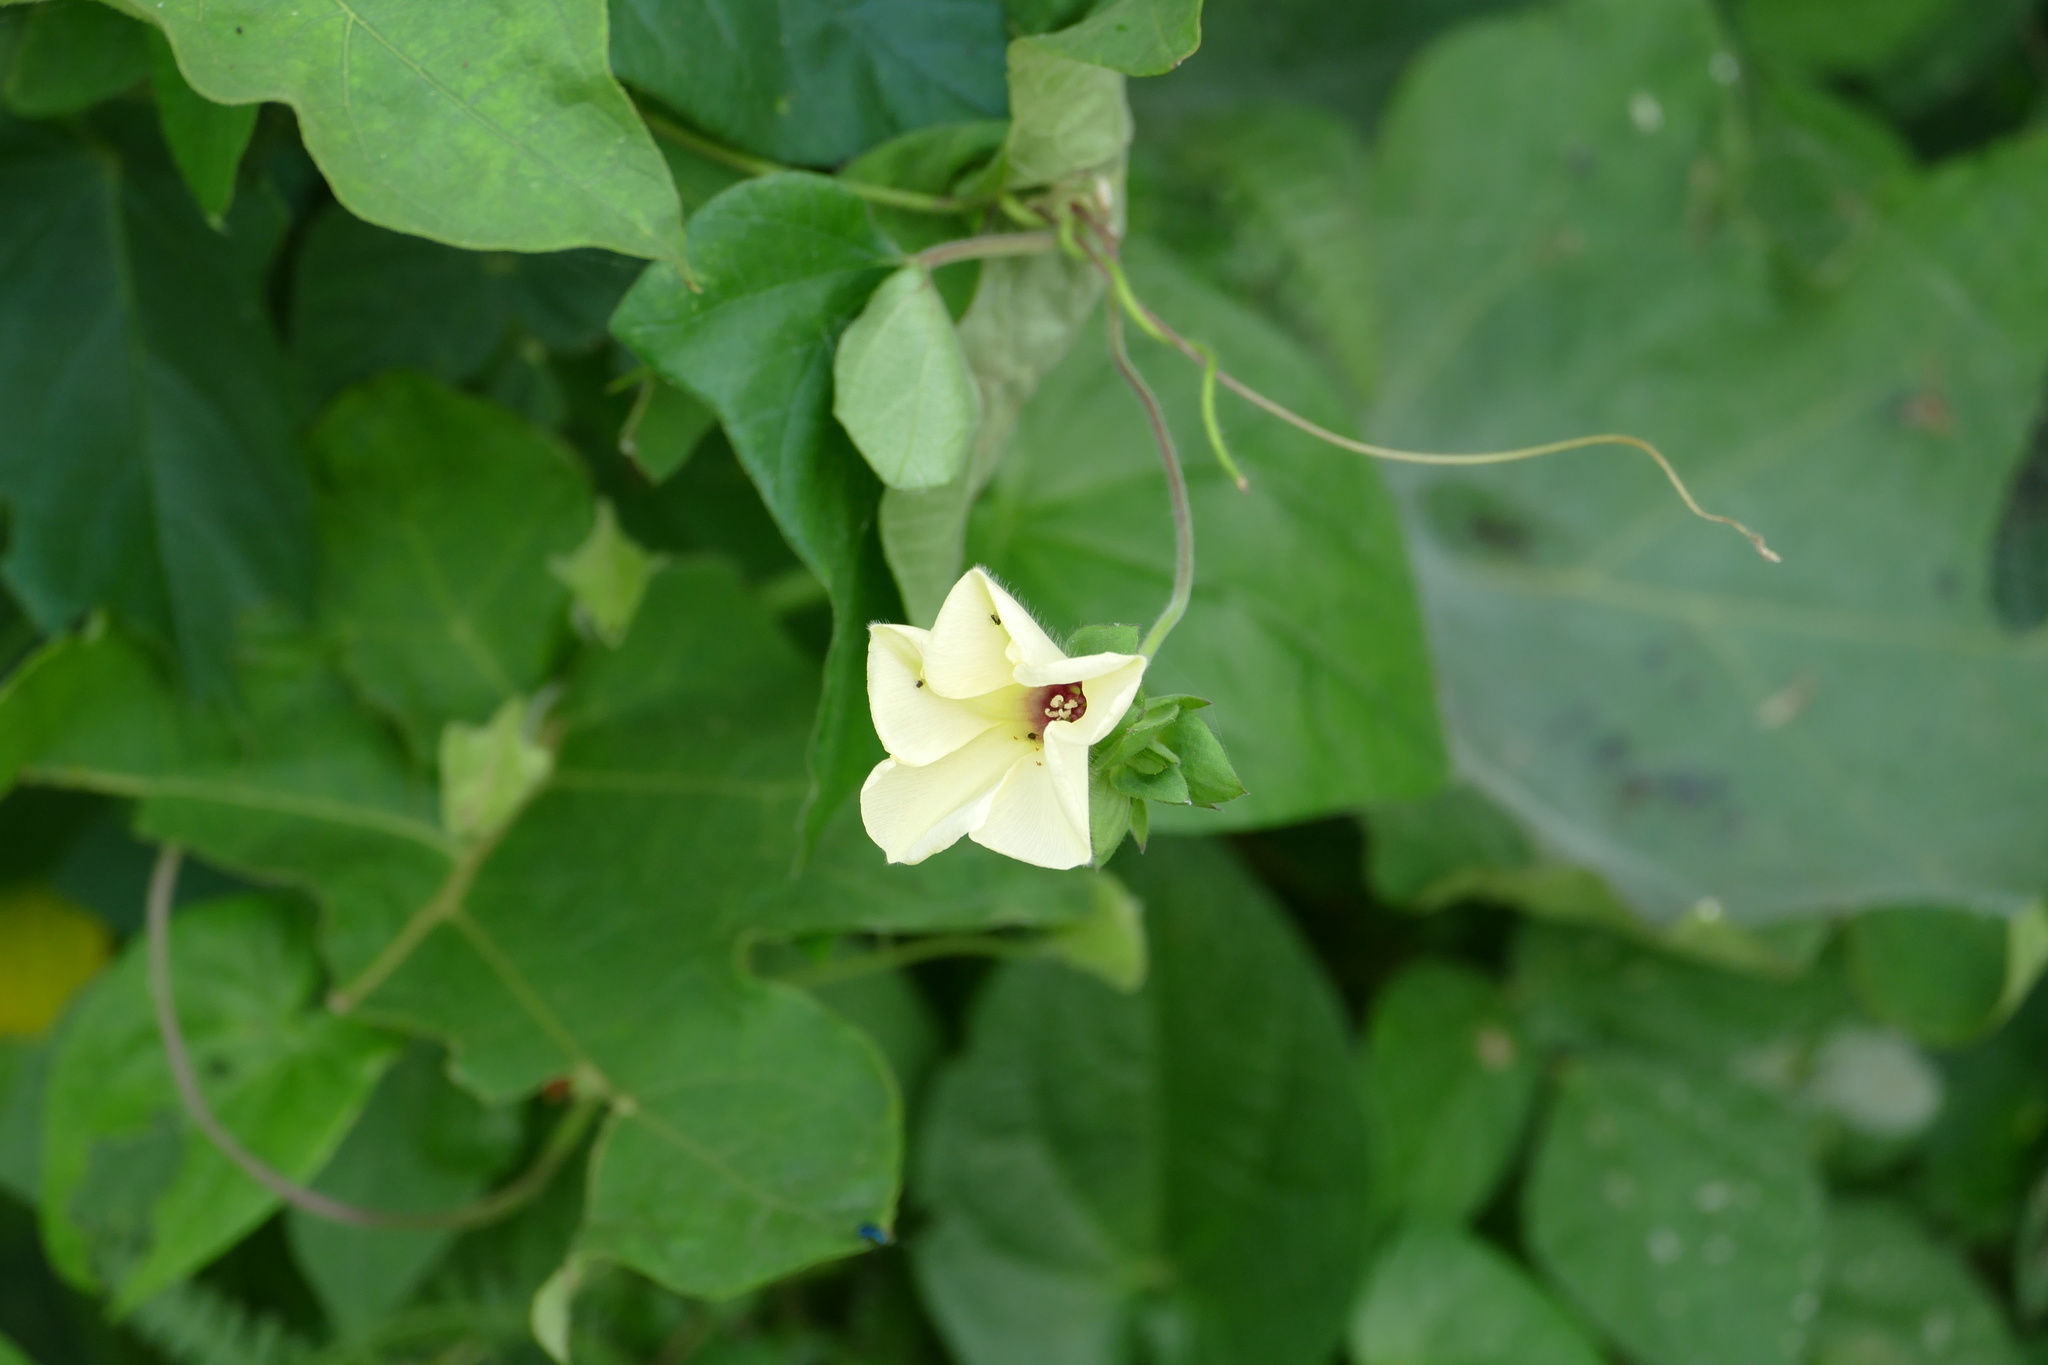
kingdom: Plantae
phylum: Tracheophyta
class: Magnoliopsida
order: Solanales
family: Convolvulaceae
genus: Hewittia
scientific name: Hewittia malabarica
